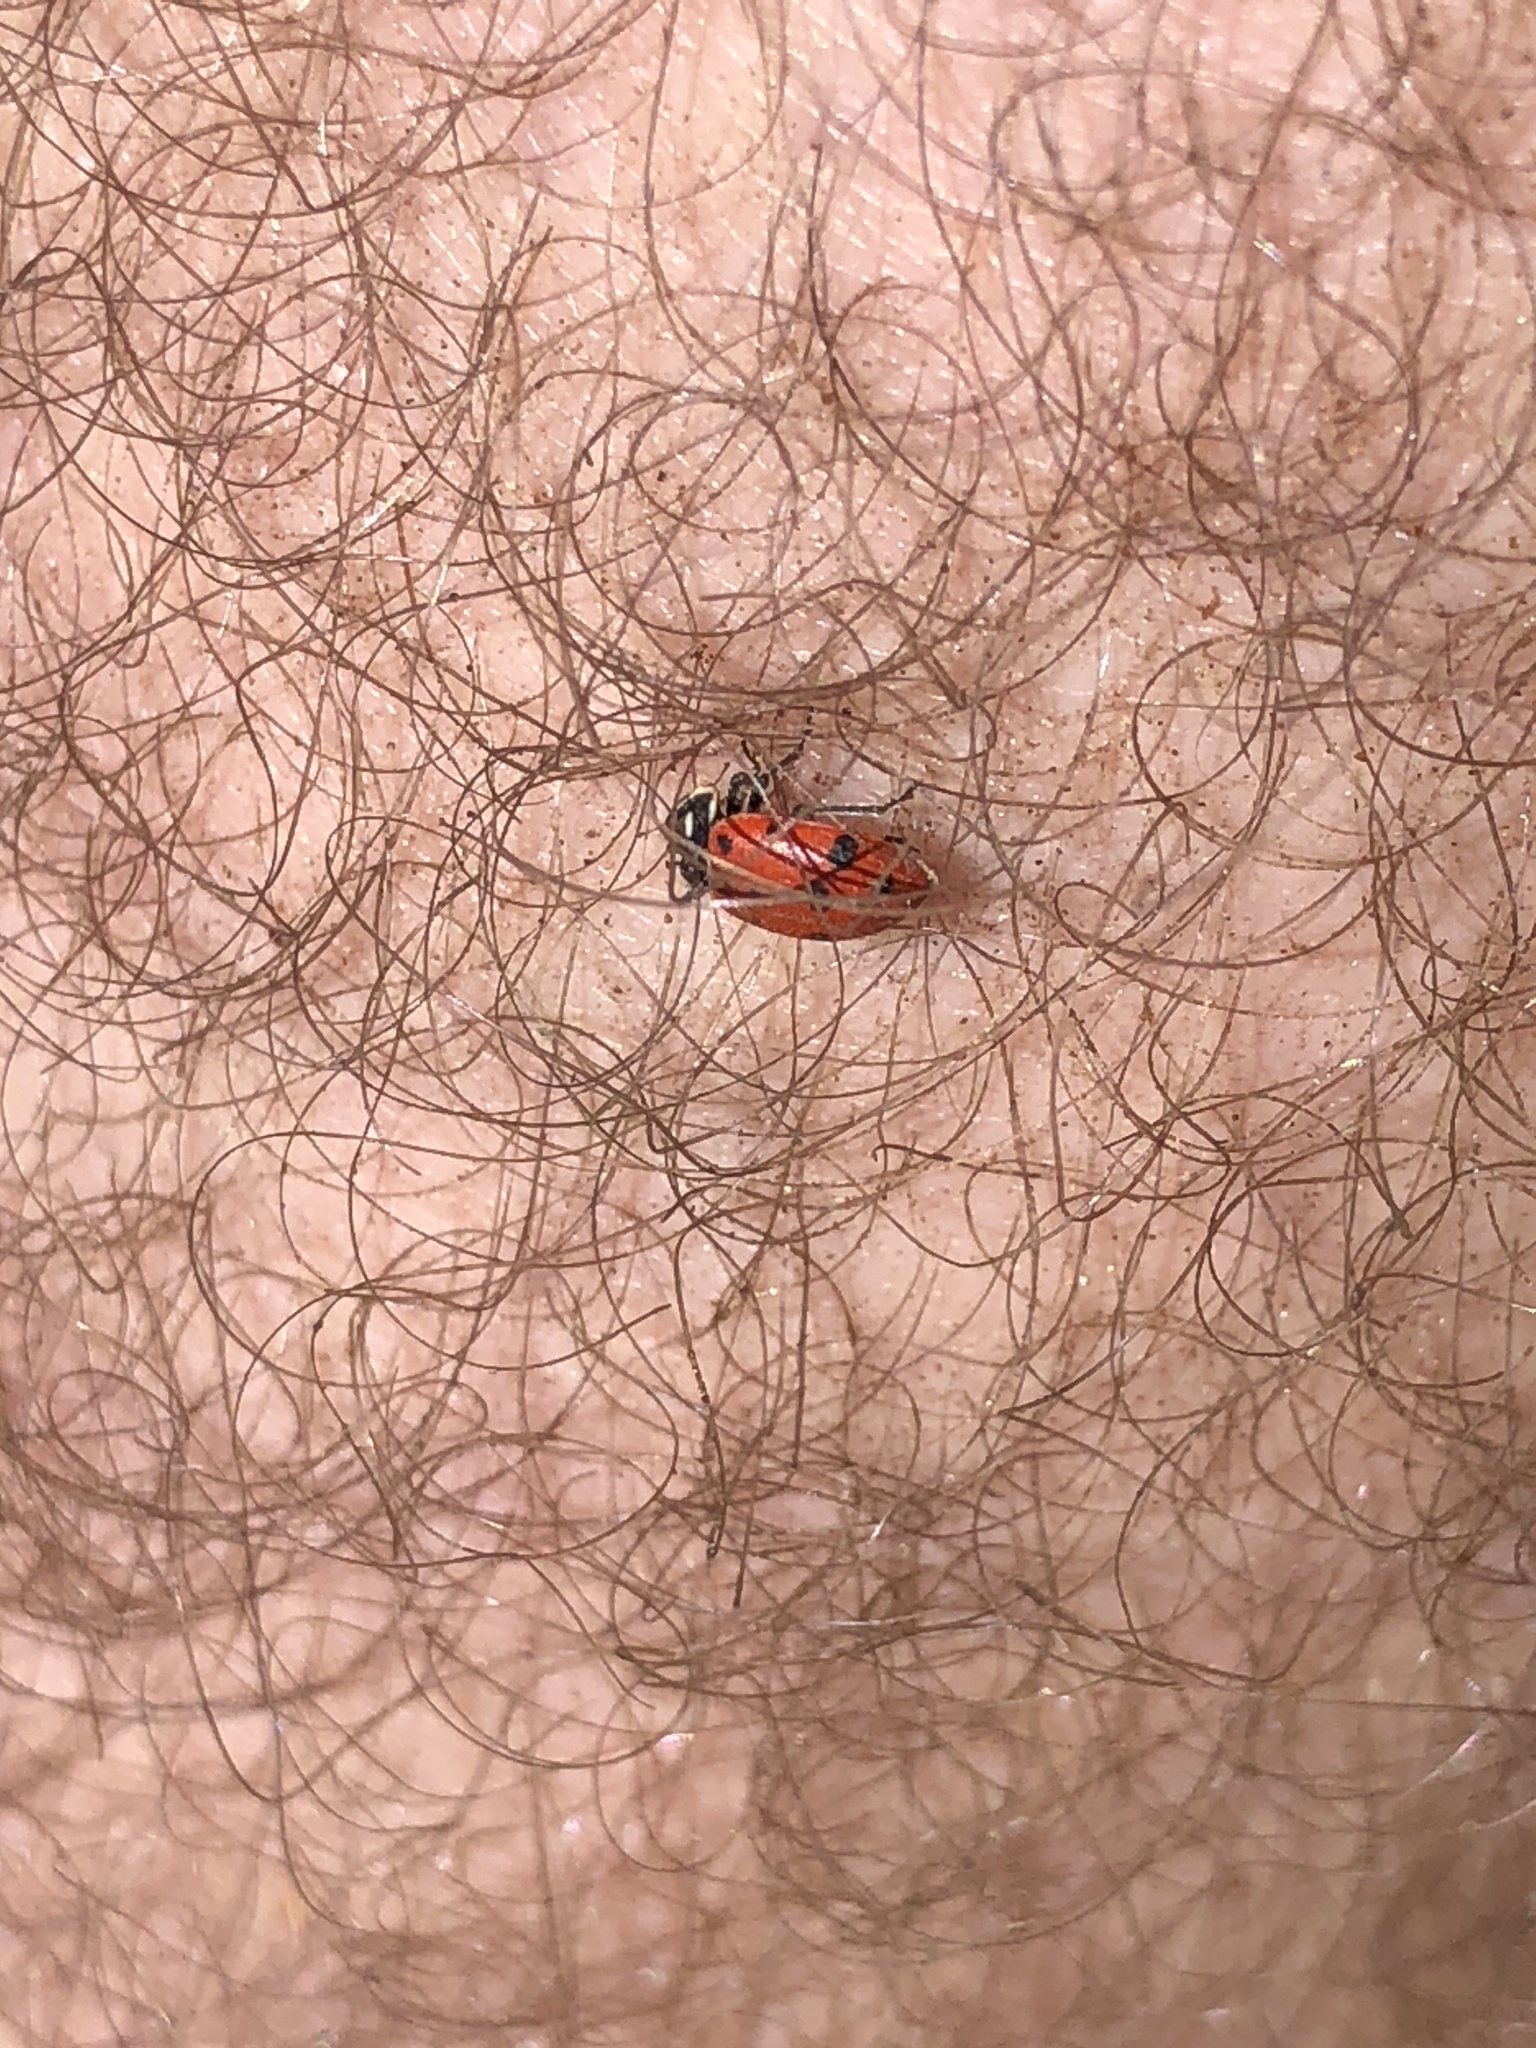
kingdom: Animalia
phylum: Arthropoda
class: Insecta
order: Coleoptera
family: Coccinellidae
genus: Hippodamia
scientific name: Hippodamia convergens
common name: Convergent lady beetle
